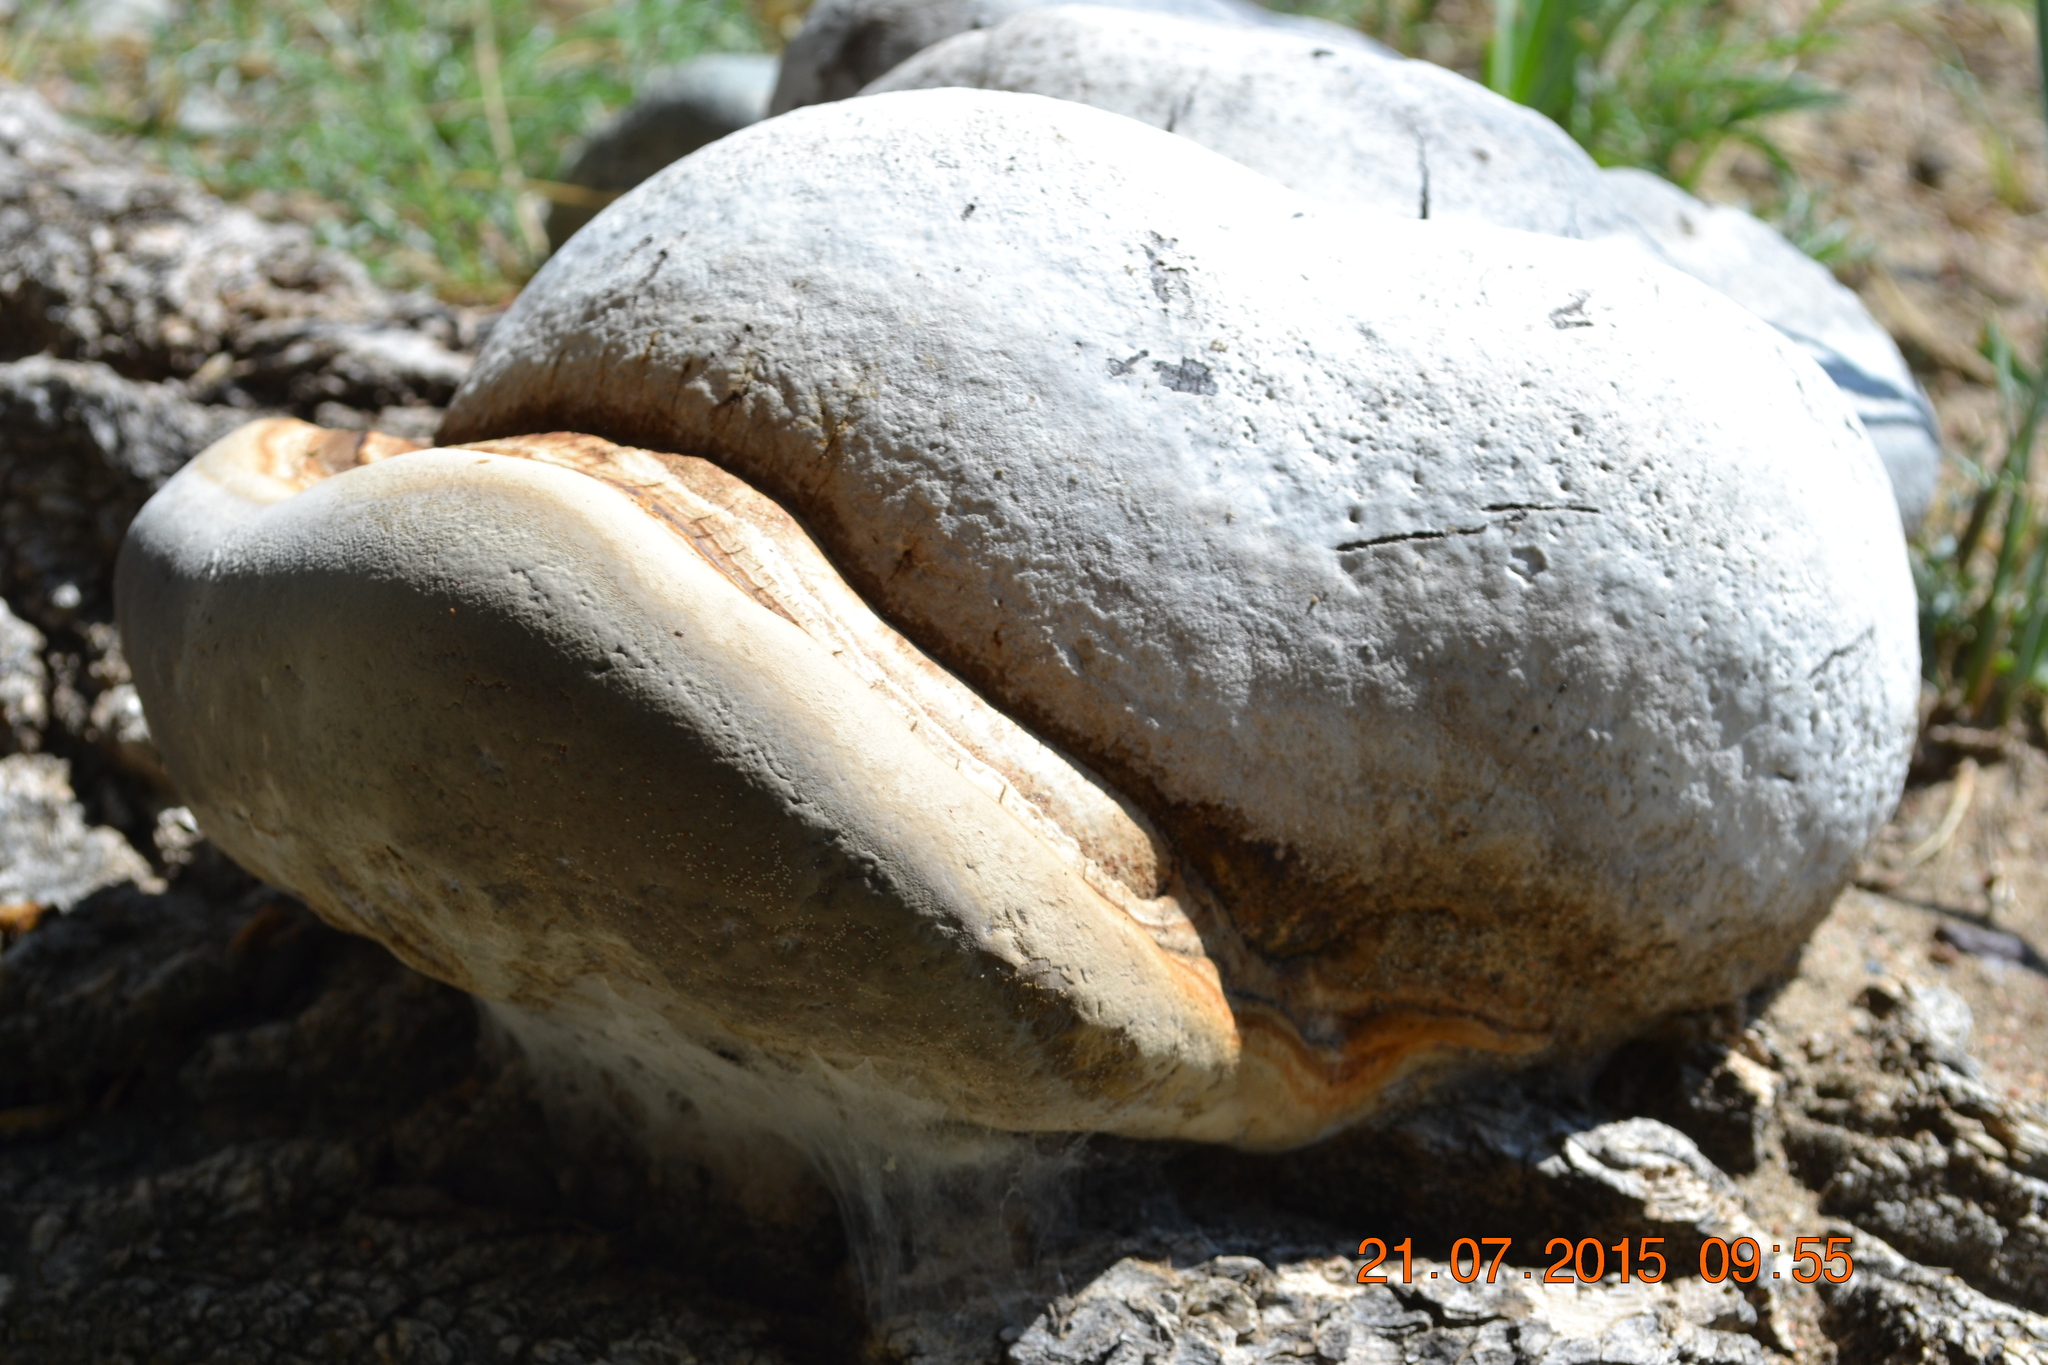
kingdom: Fungi
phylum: Basidiomycota
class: Agaricomycetes
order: Polyporales
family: Polyporaceae
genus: Fomes
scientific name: Fomes fomentarius
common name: Hoof fungus
